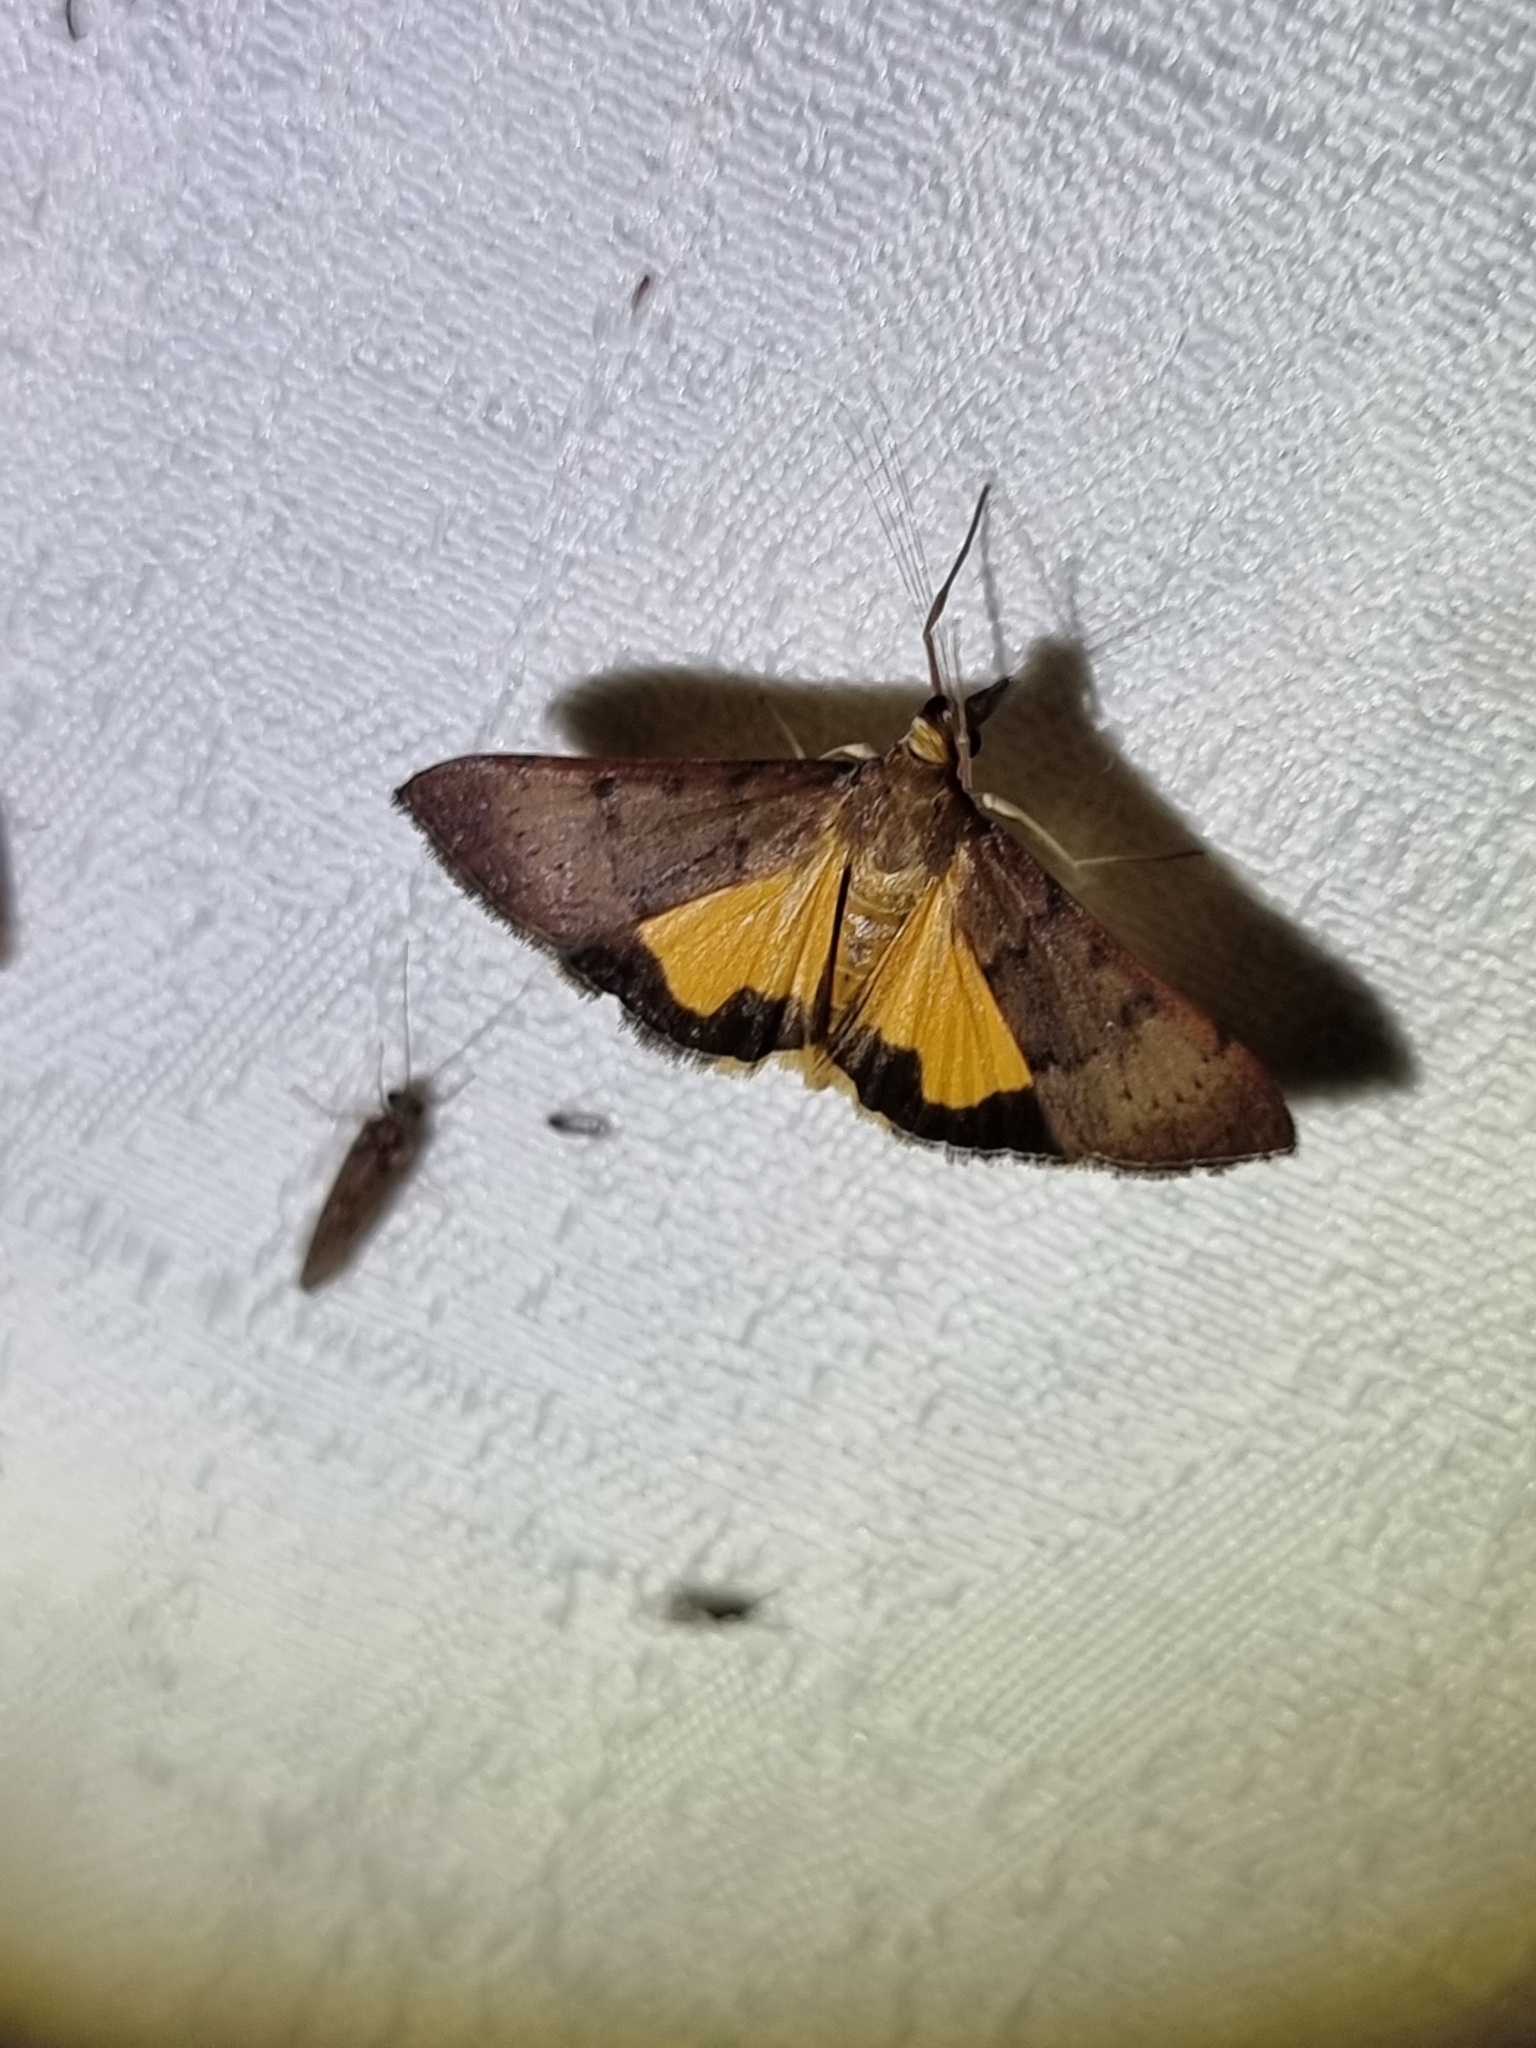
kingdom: Animalia
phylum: Arthropoda
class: Insecta
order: Lepidoptera
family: Crambidae
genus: Uresiphita
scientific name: Uresiphita ornithopteralis
